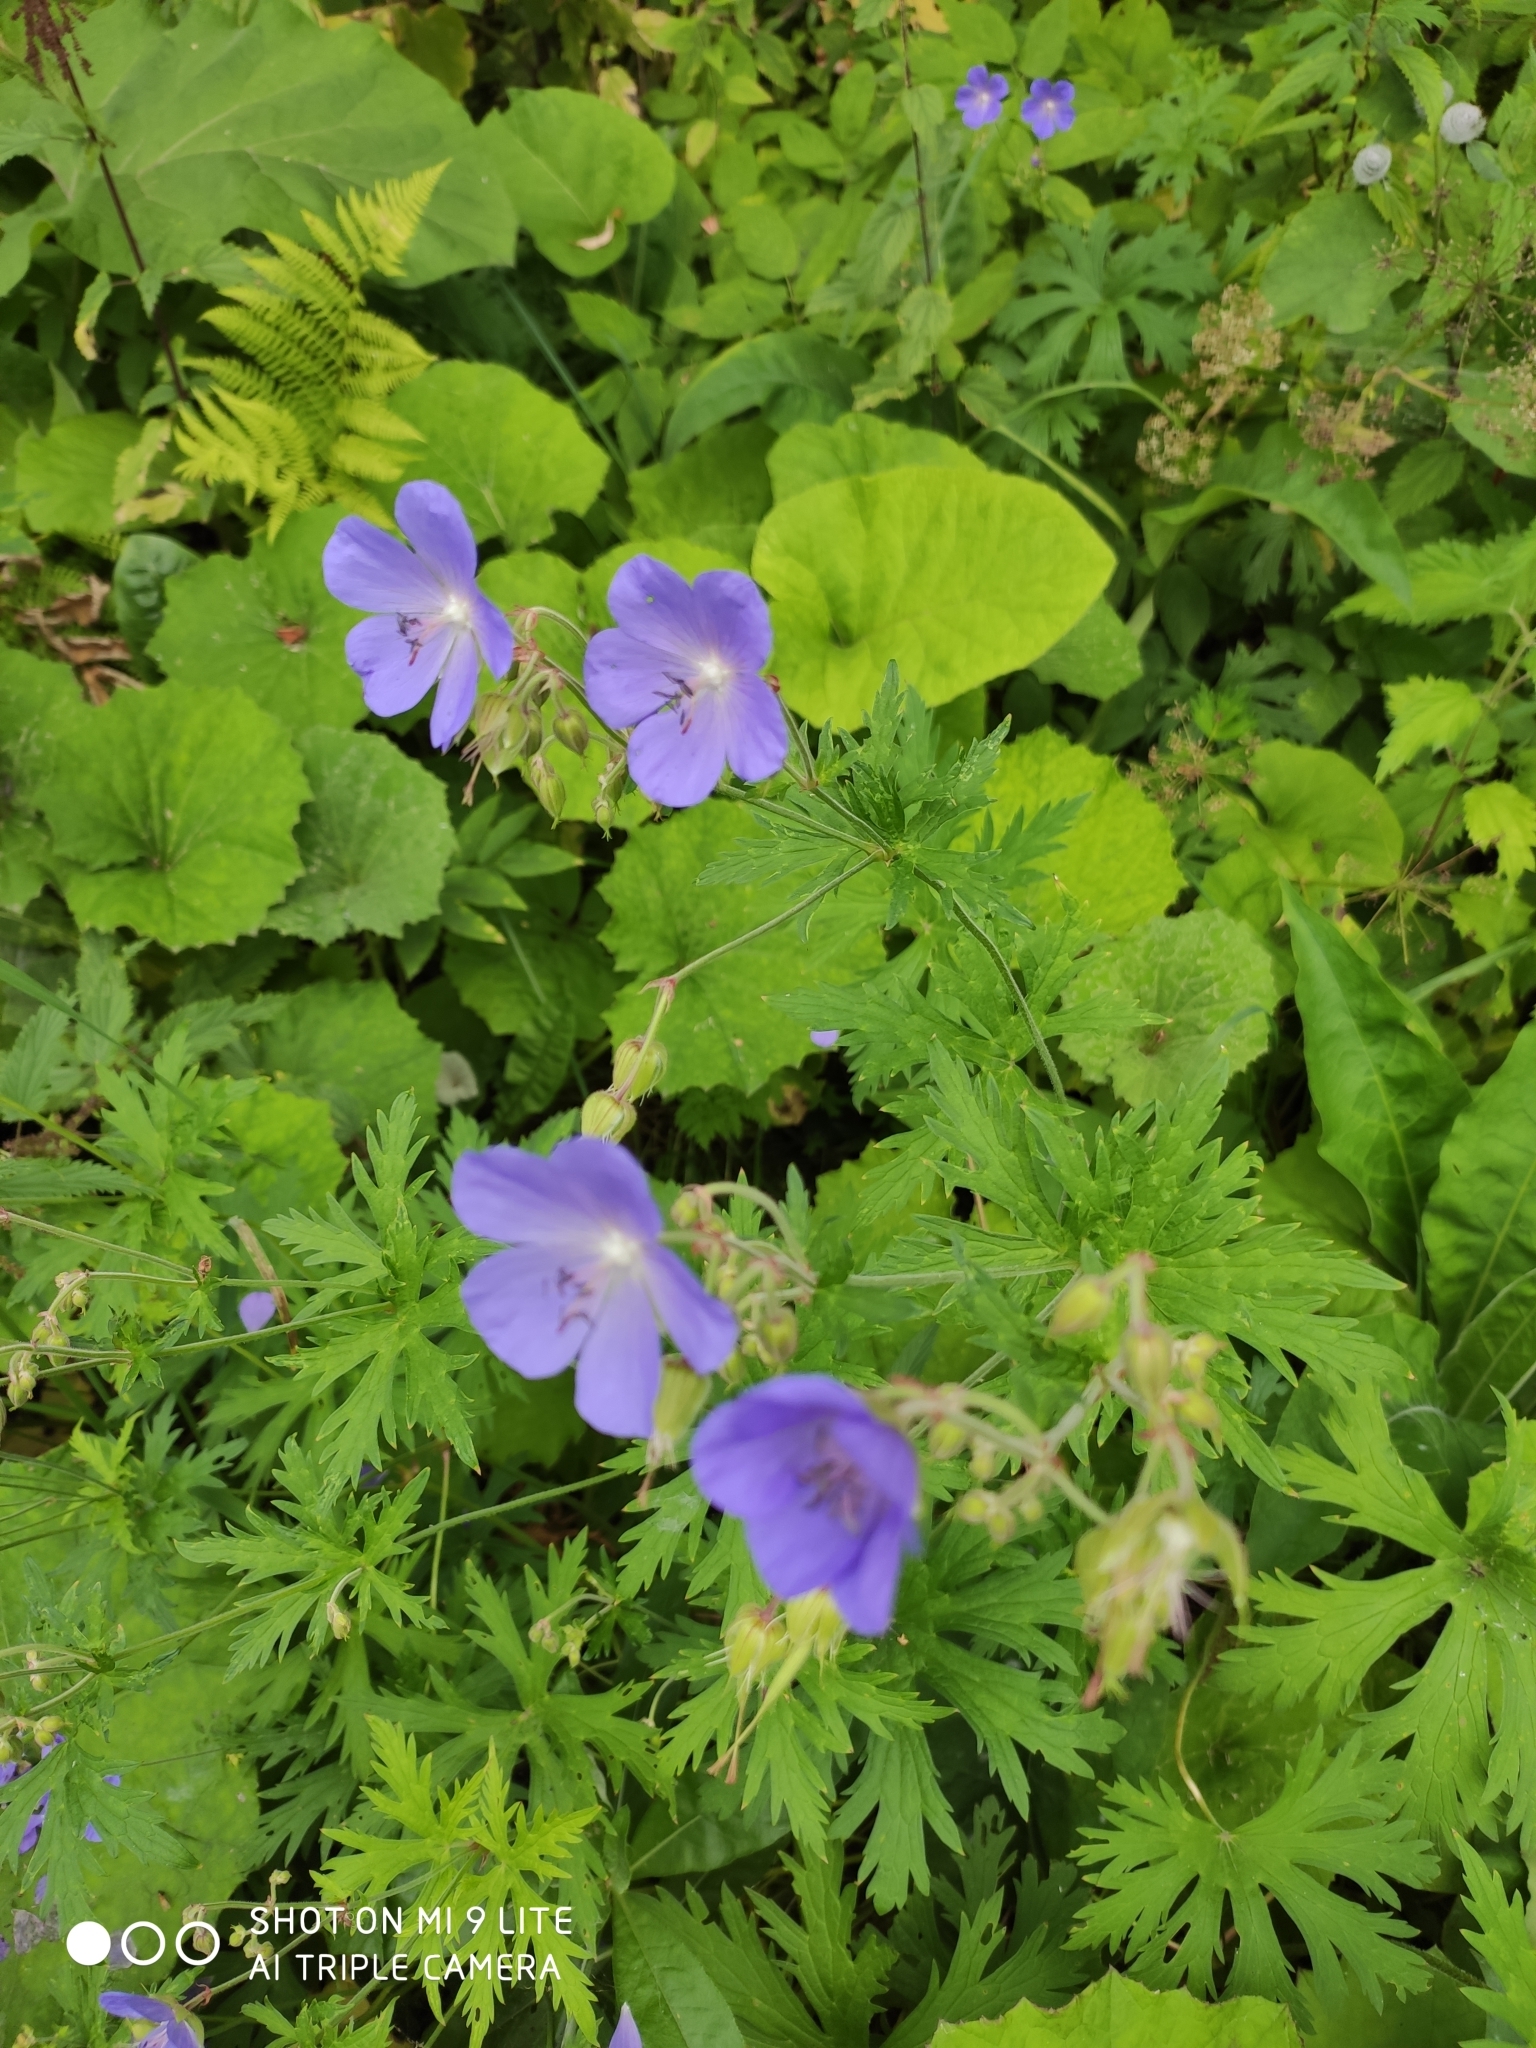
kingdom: Plantae
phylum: Tracheophyta
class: Magnoliopsida
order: Geraniales
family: Geraniaceae
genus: Geranium
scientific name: Geranium pratense
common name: Meadow crane's-bill
